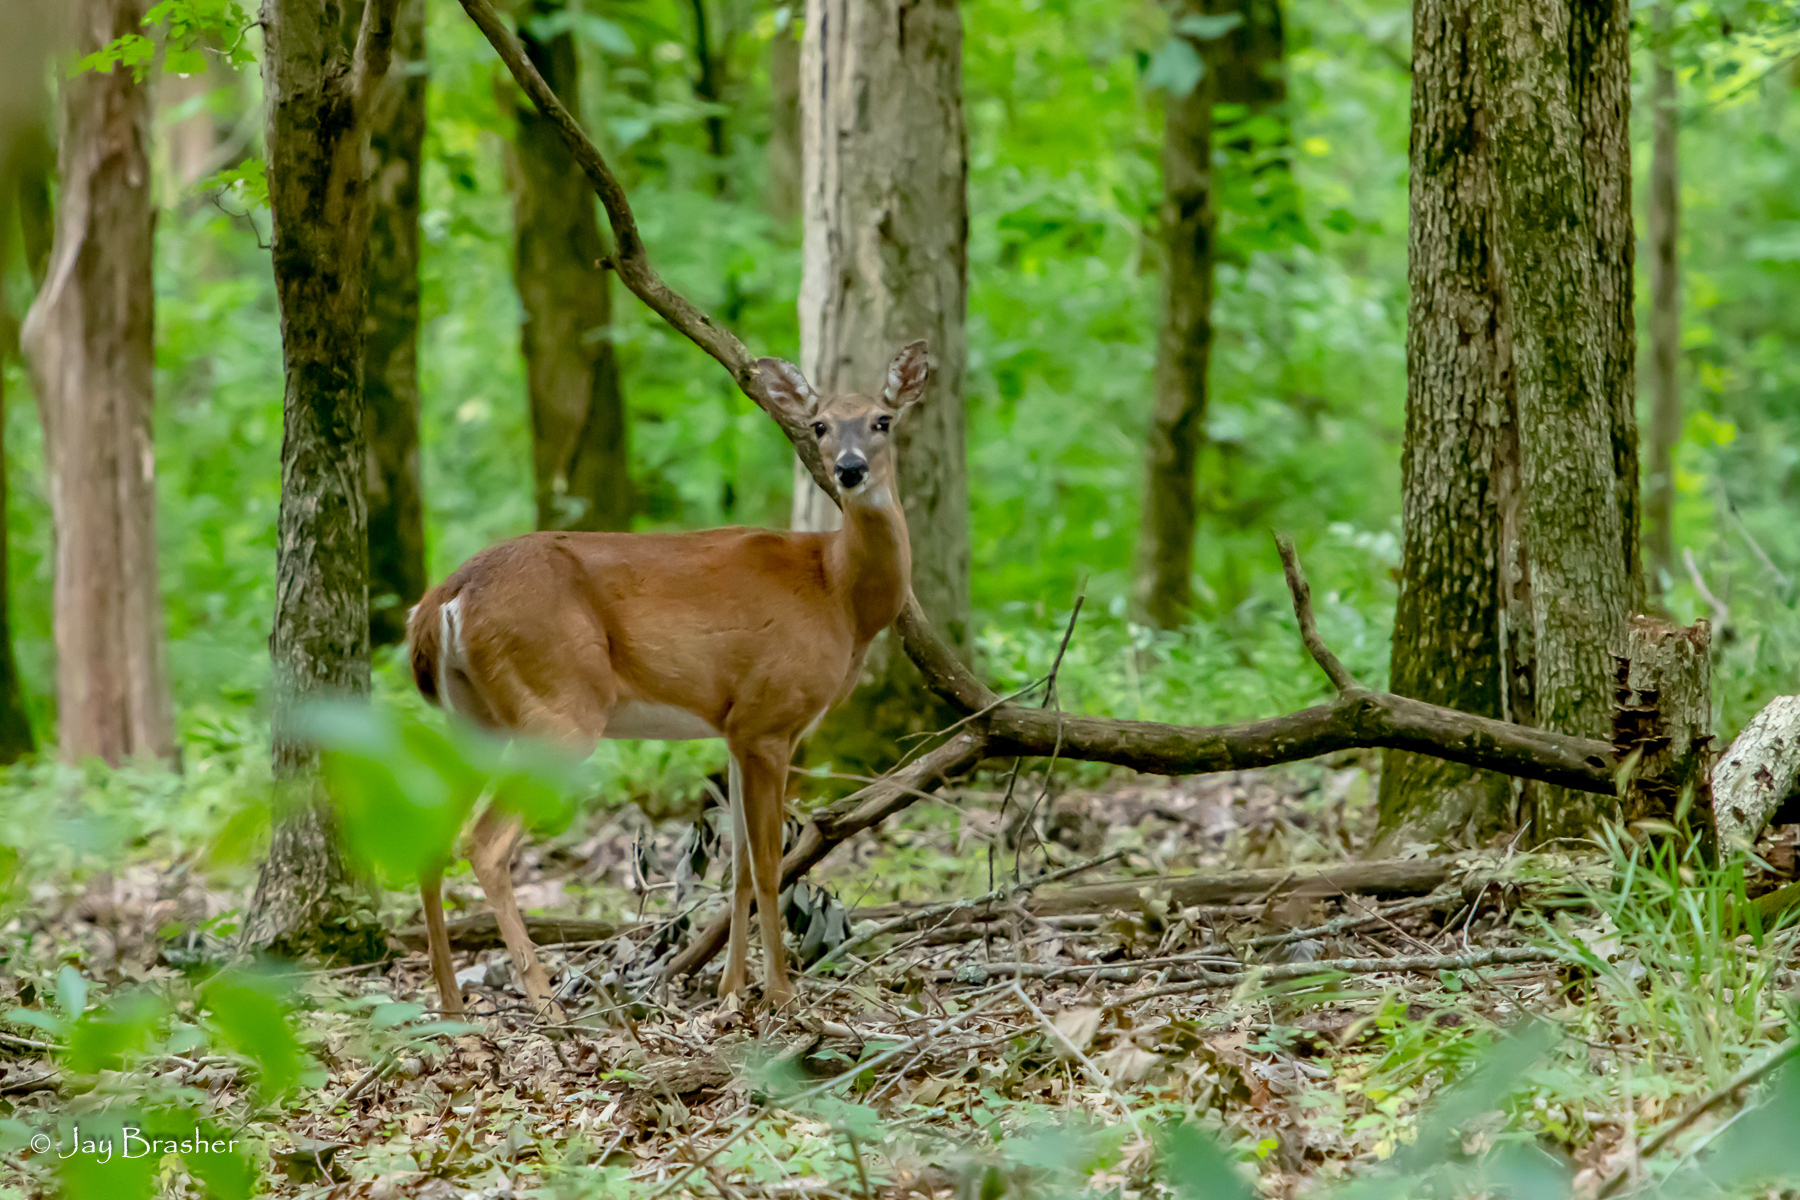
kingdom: Animalia
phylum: Chordata
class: Mammalia
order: Artiodactyla
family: Cervidae
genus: Odocoileus
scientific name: Odocoileus virginianus
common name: White-tailed deer
